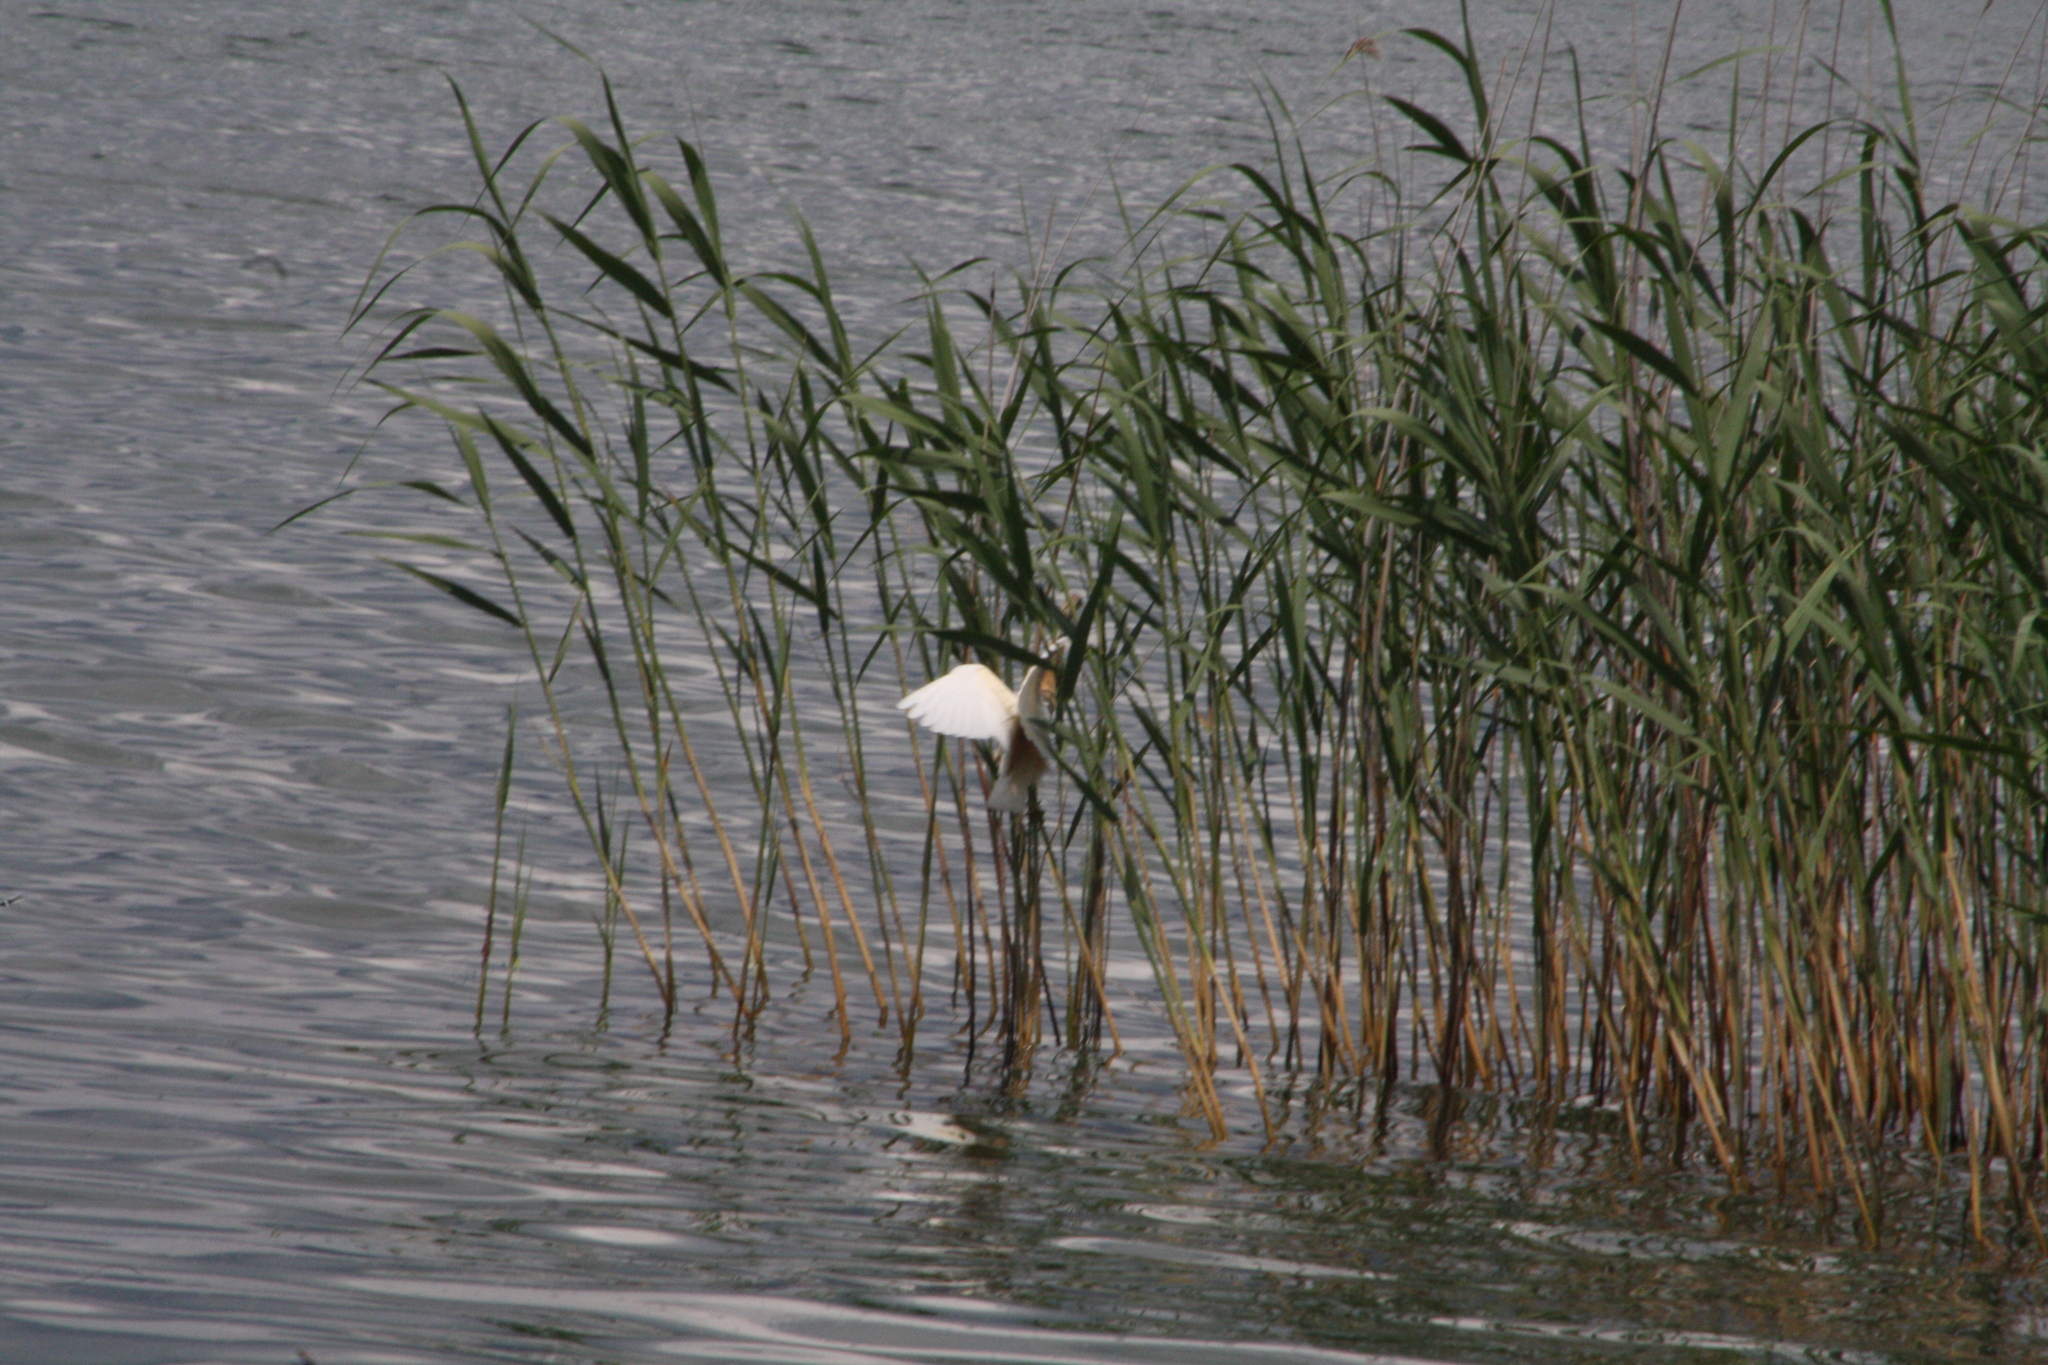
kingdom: Animalia
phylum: Chordata
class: Aves
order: Pelecaniformes
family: Ardeidae
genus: Ardeola
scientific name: Ardeola ralloides
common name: Squacco heron
